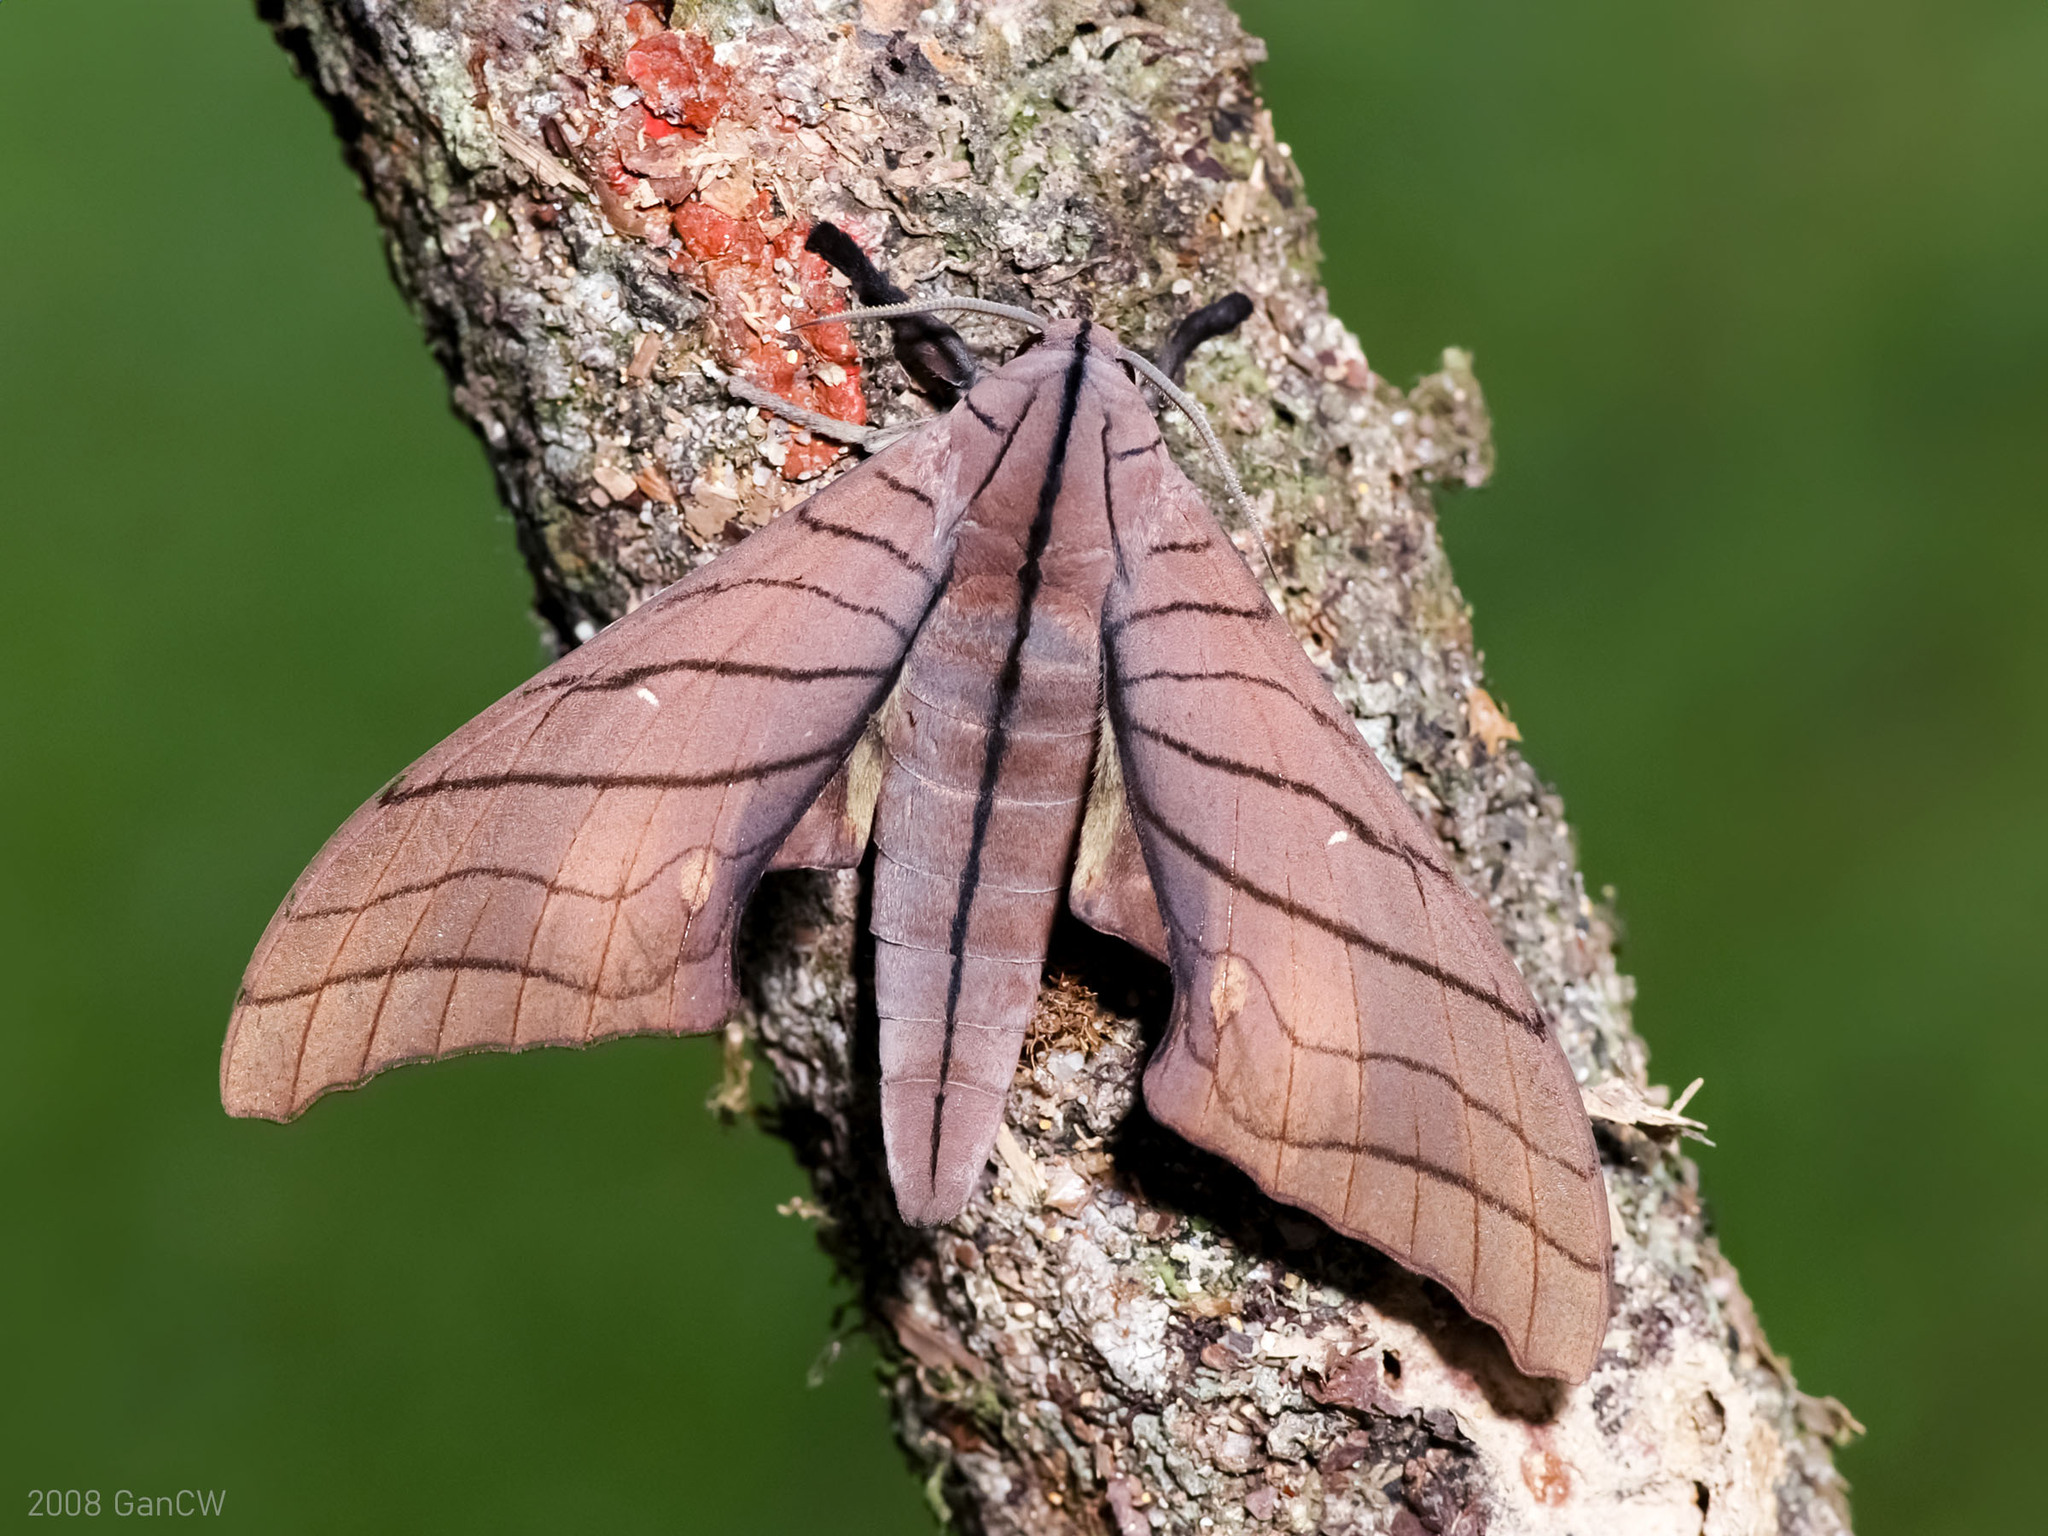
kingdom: Animalia
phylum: Arthropoda
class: Insecta
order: Lepidoptera
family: Sphingidae
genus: Marumba
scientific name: Marumba tigrina
